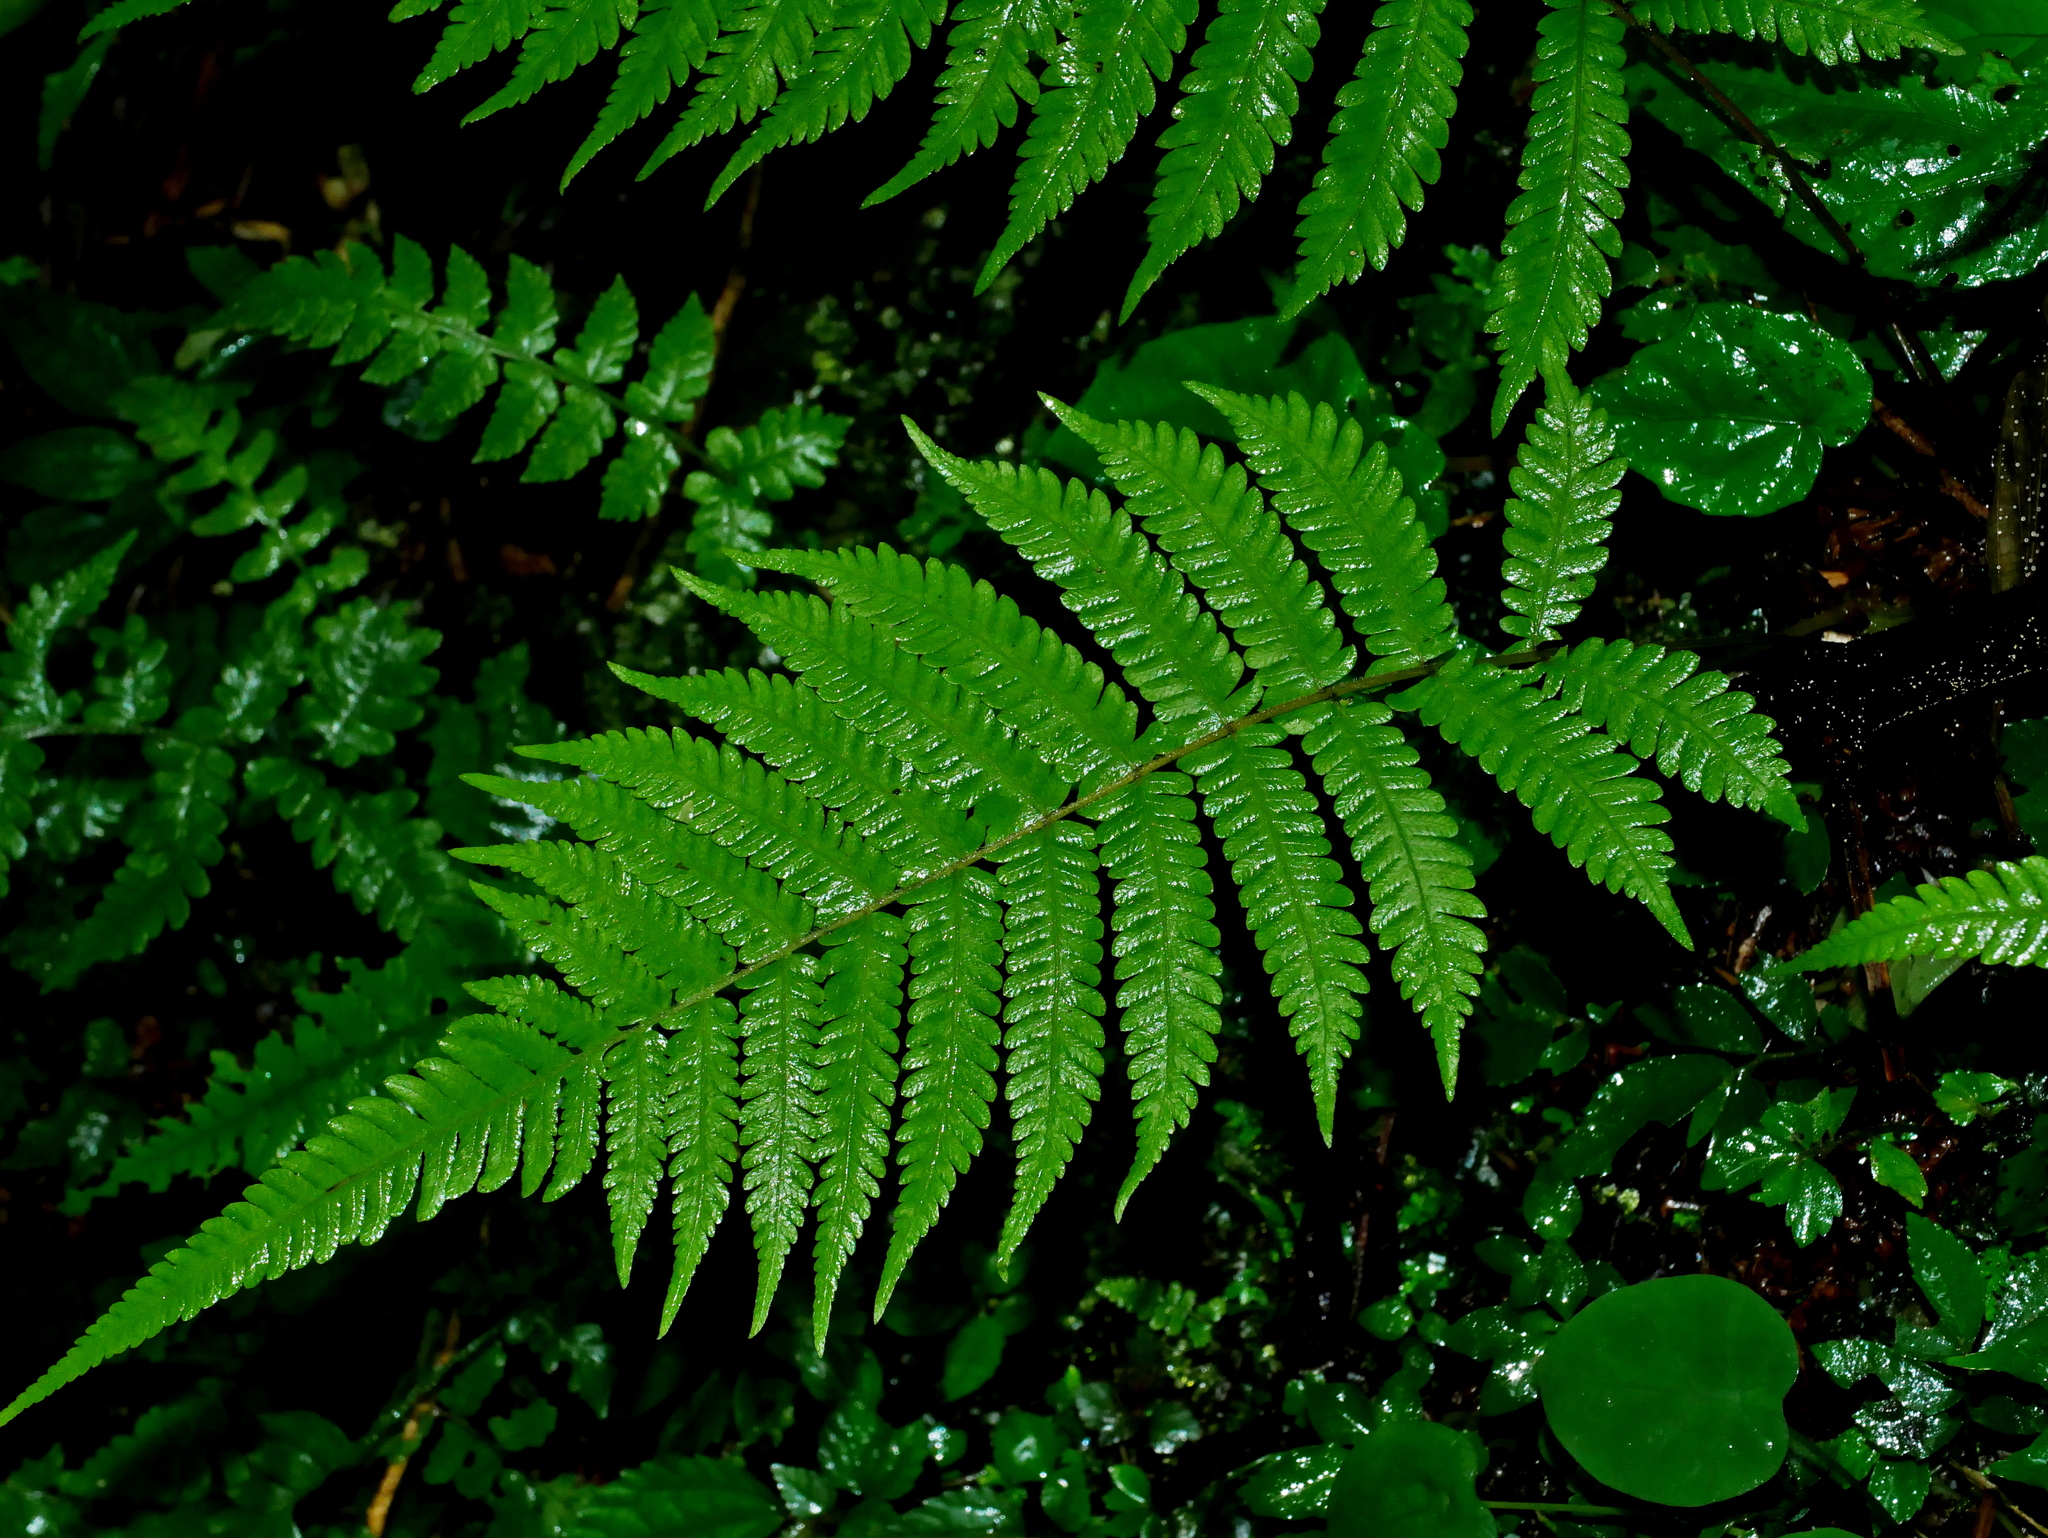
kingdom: Plantae
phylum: Tracheophyta
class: Polypodiopsida
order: Polypodiales
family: Thelypteridaceae
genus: Pseudocyclosorus
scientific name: Pseudocyclosorus esquirolii
